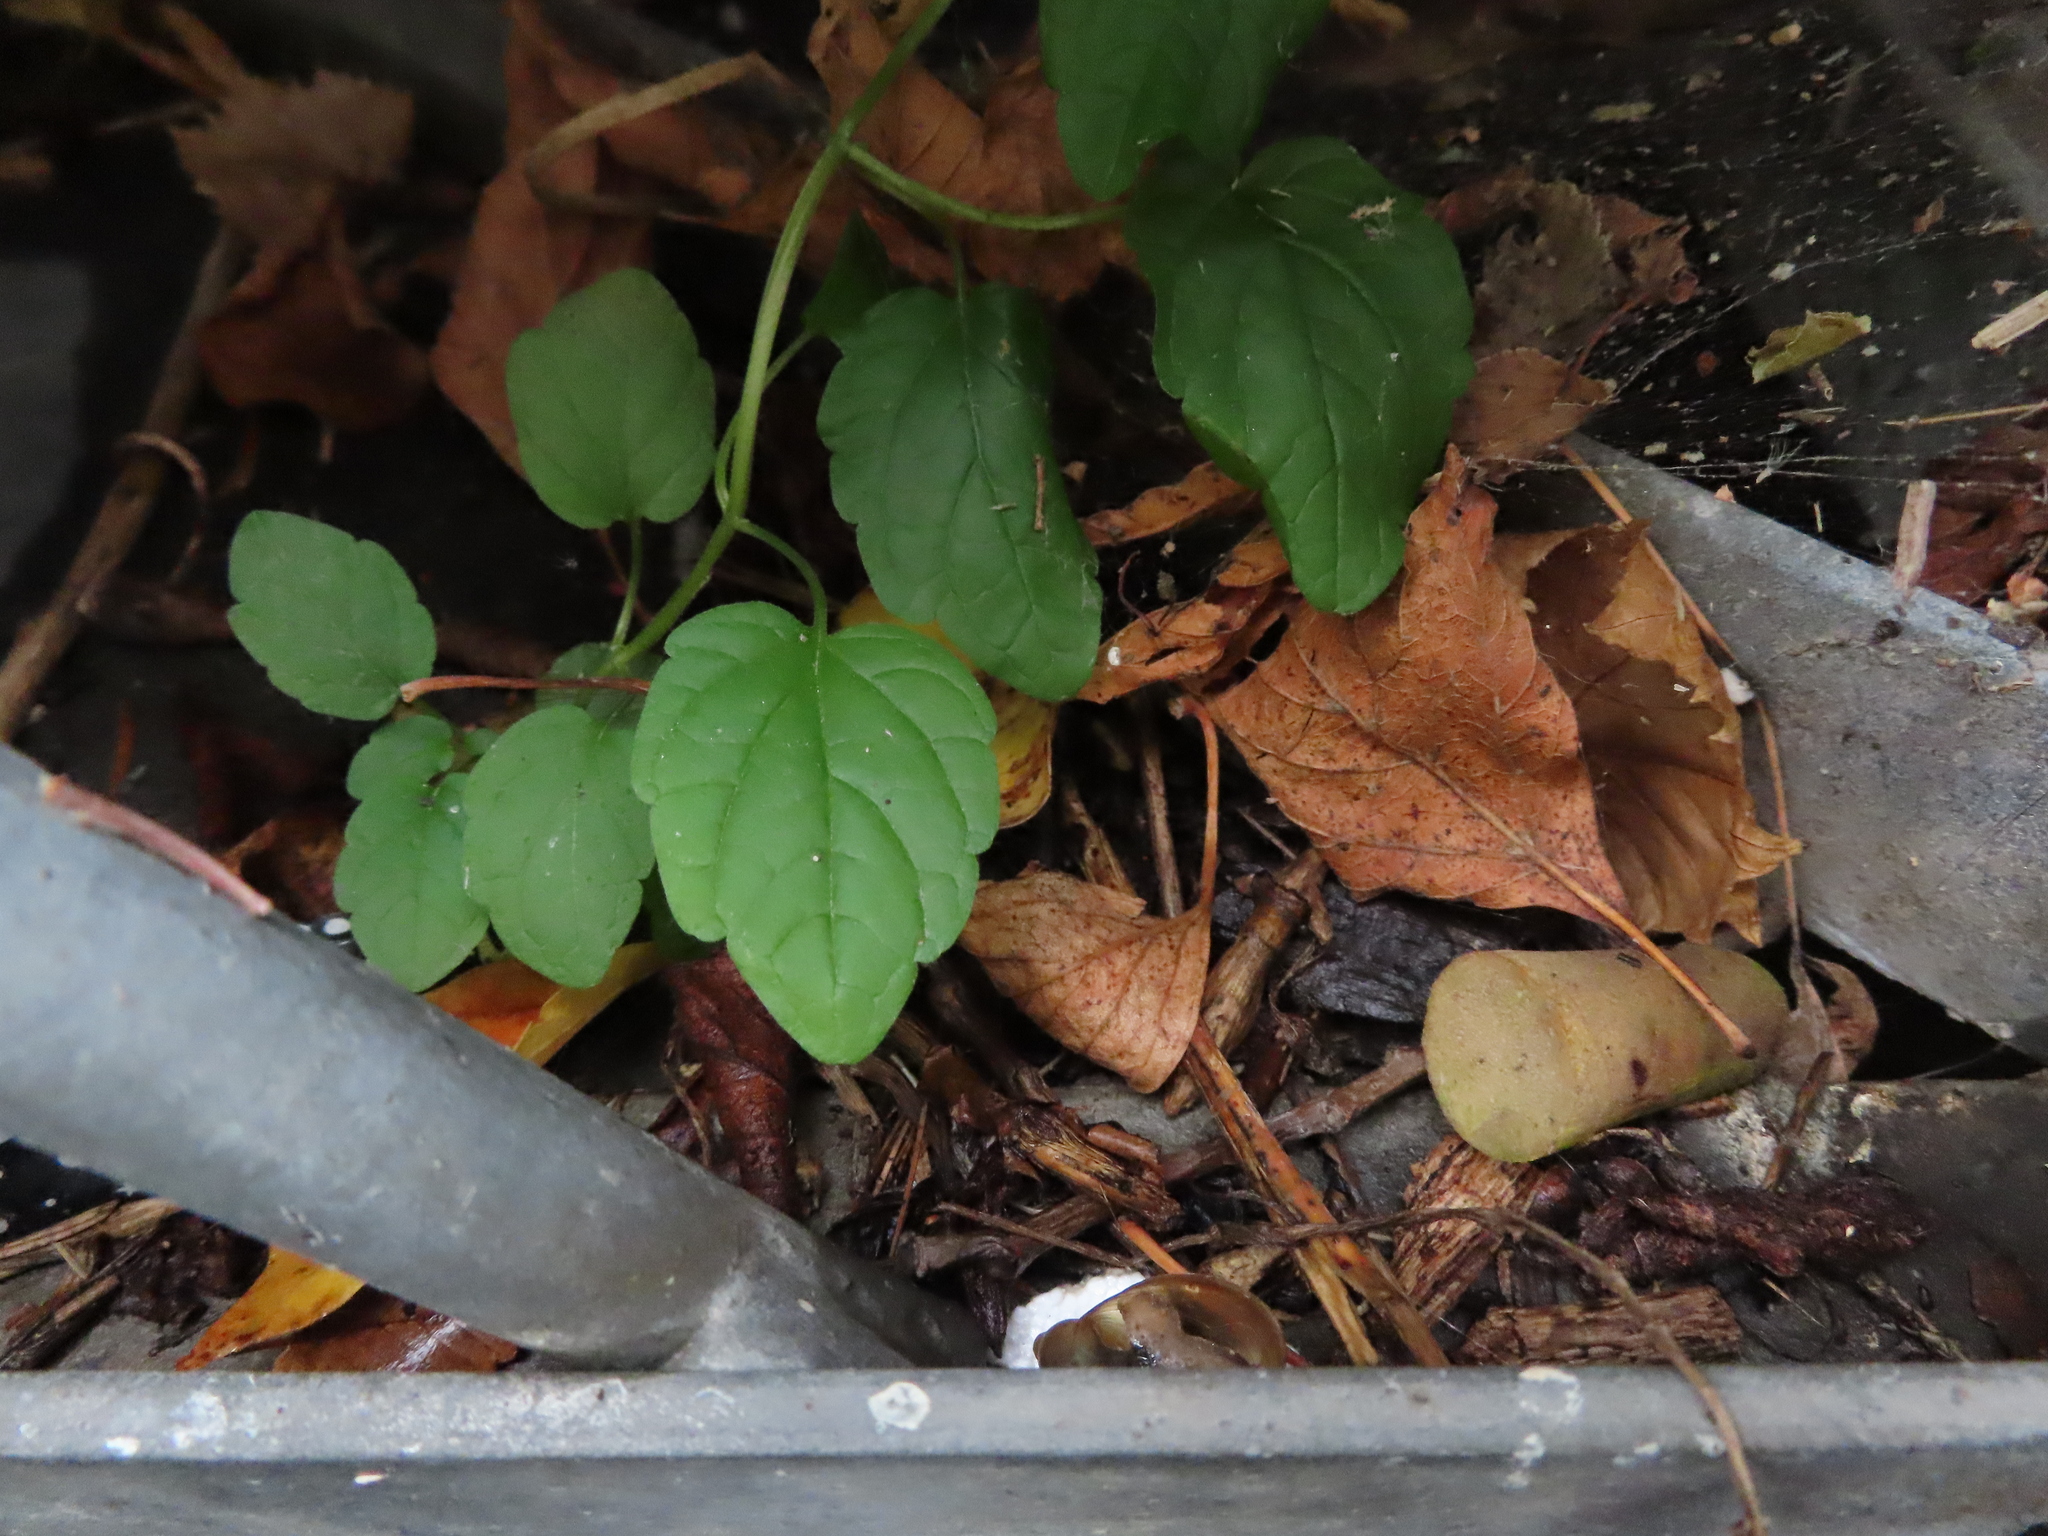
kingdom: Plantae
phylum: Tracheophyta
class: Magnoliopsida
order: Lamiales
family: Lamiaceae
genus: Scutellaria
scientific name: Scutellaria lateriflora
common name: Blue skullcap
